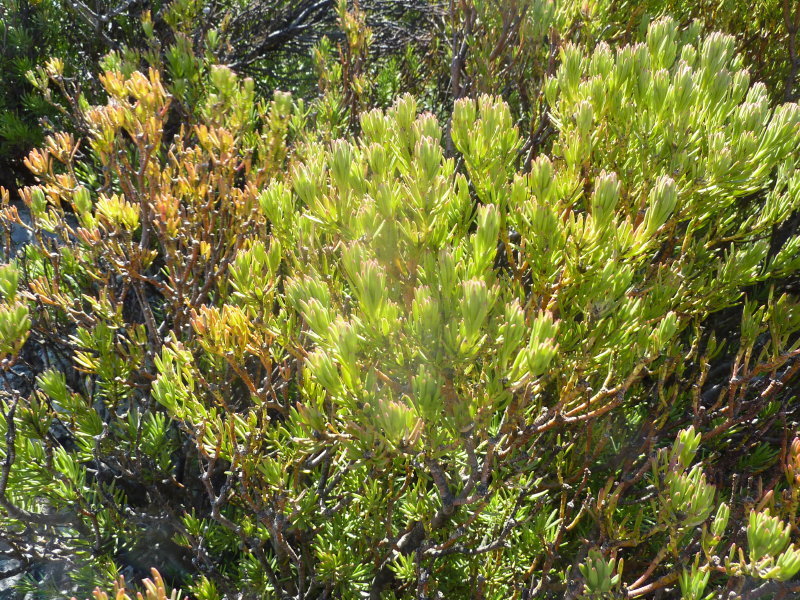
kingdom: Plantae
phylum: Tracheophyta
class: Magnoliopsida
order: Proteales
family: Proteaceae
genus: Leucadendron
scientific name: Leucadendron dregei
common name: Summit conebush
